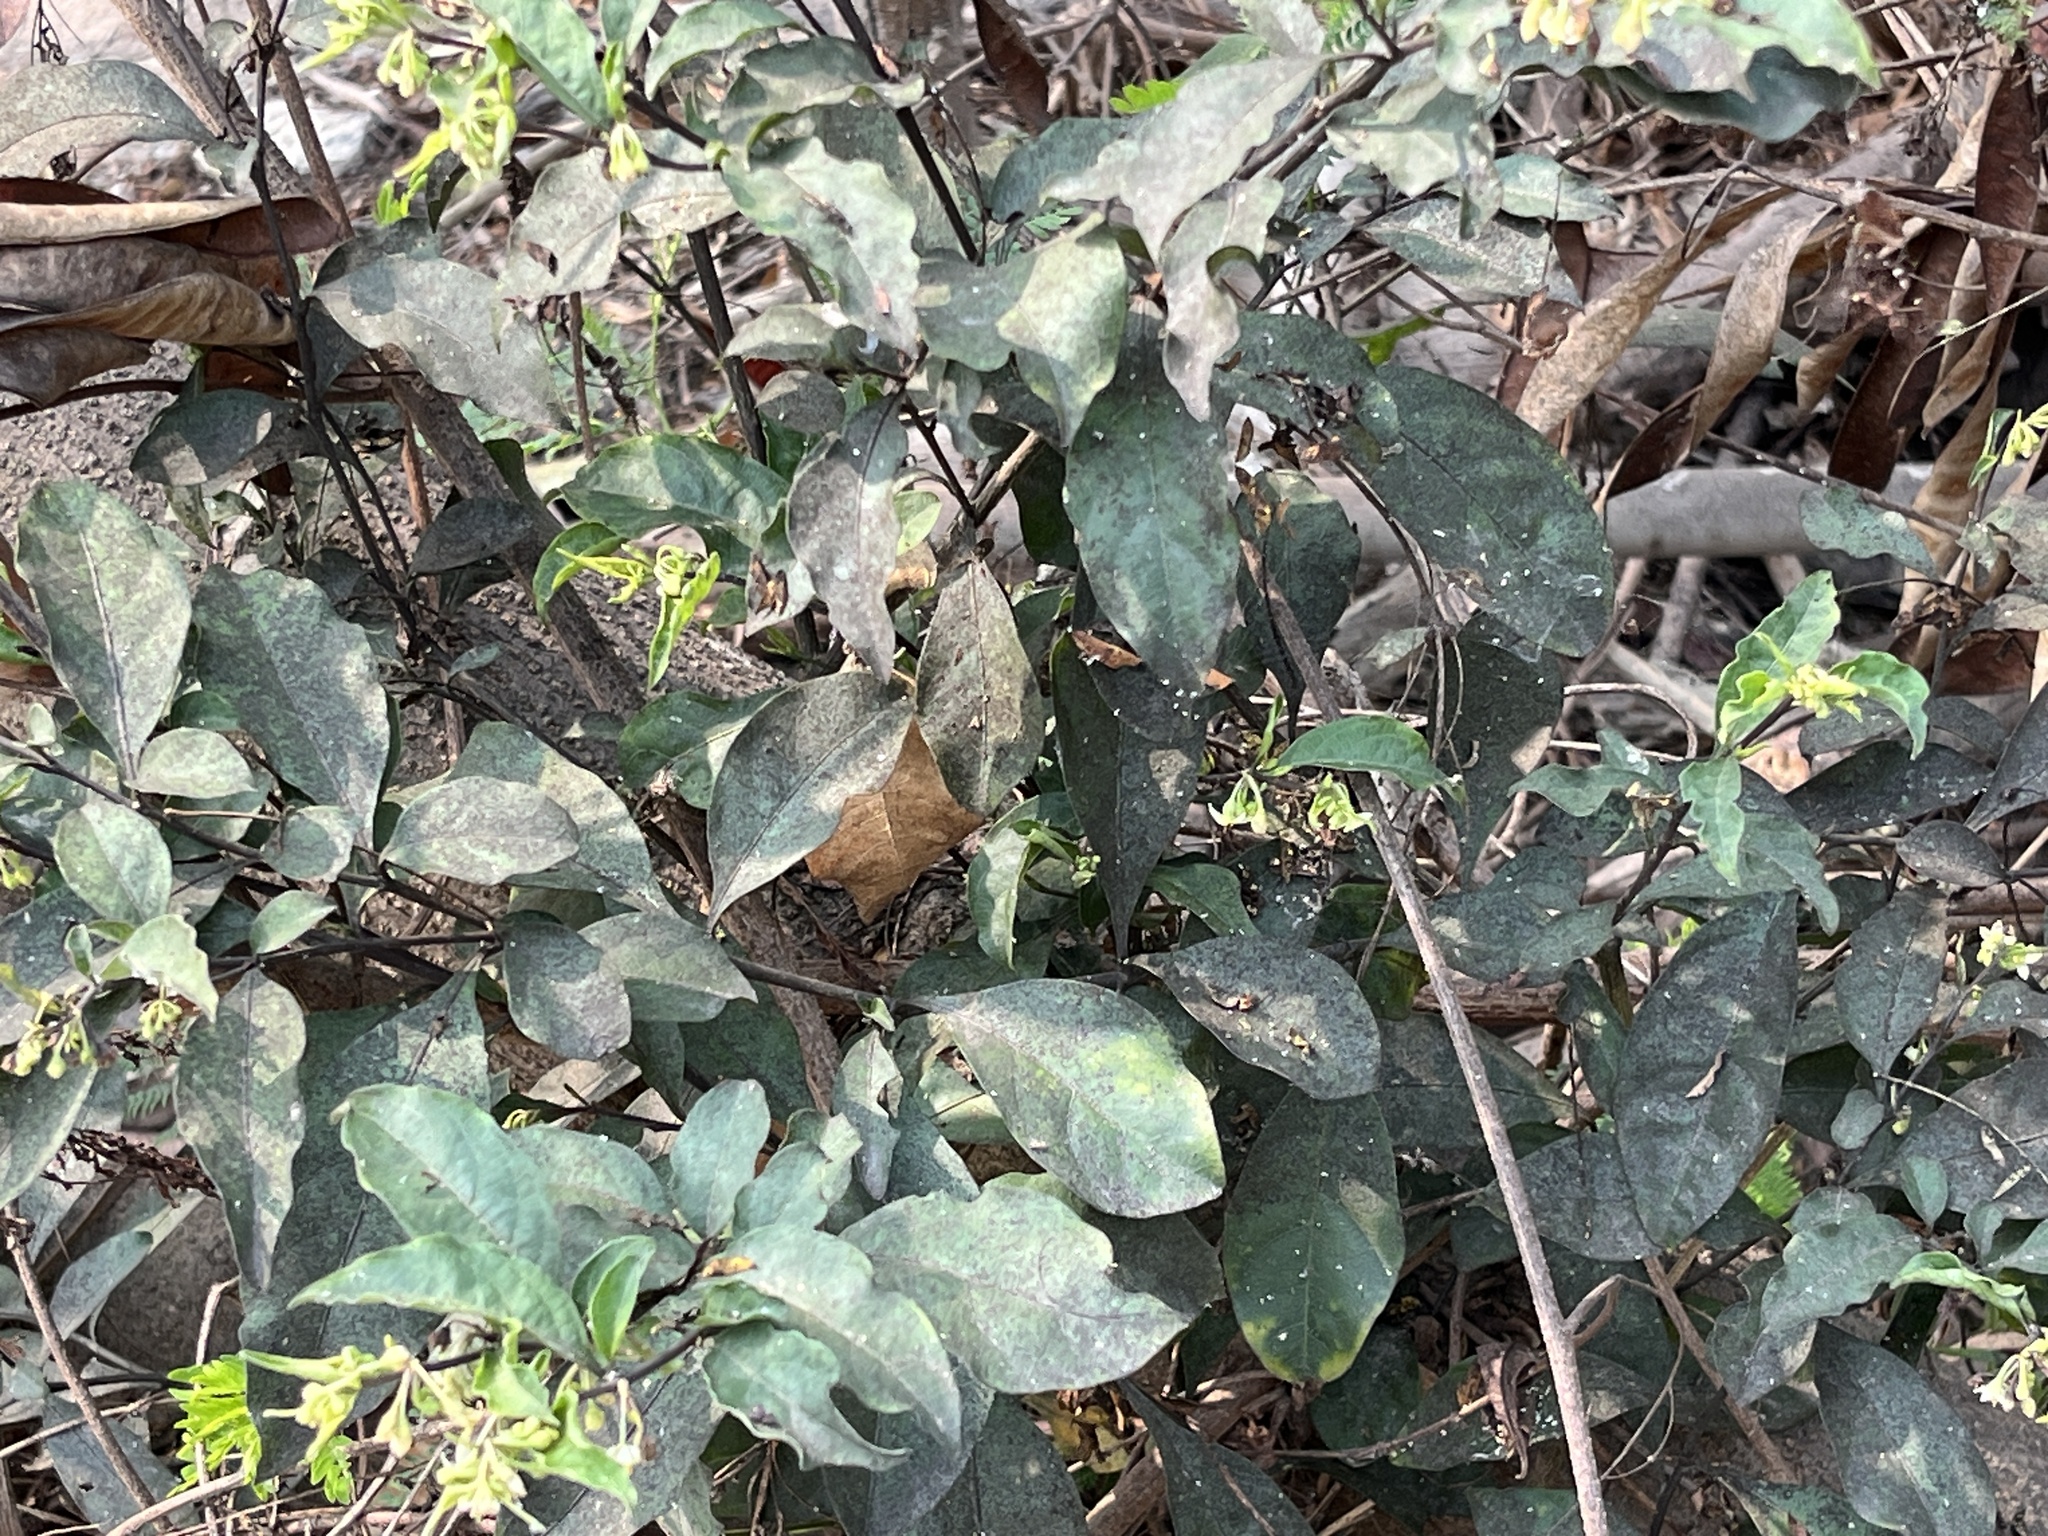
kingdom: Plantae
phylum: Tracheophyta
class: Magnoliopsida
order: Solanales
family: Solanaceae
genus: Solanum
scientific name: Solanum diphyllum
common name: Twoleaf nightshade
